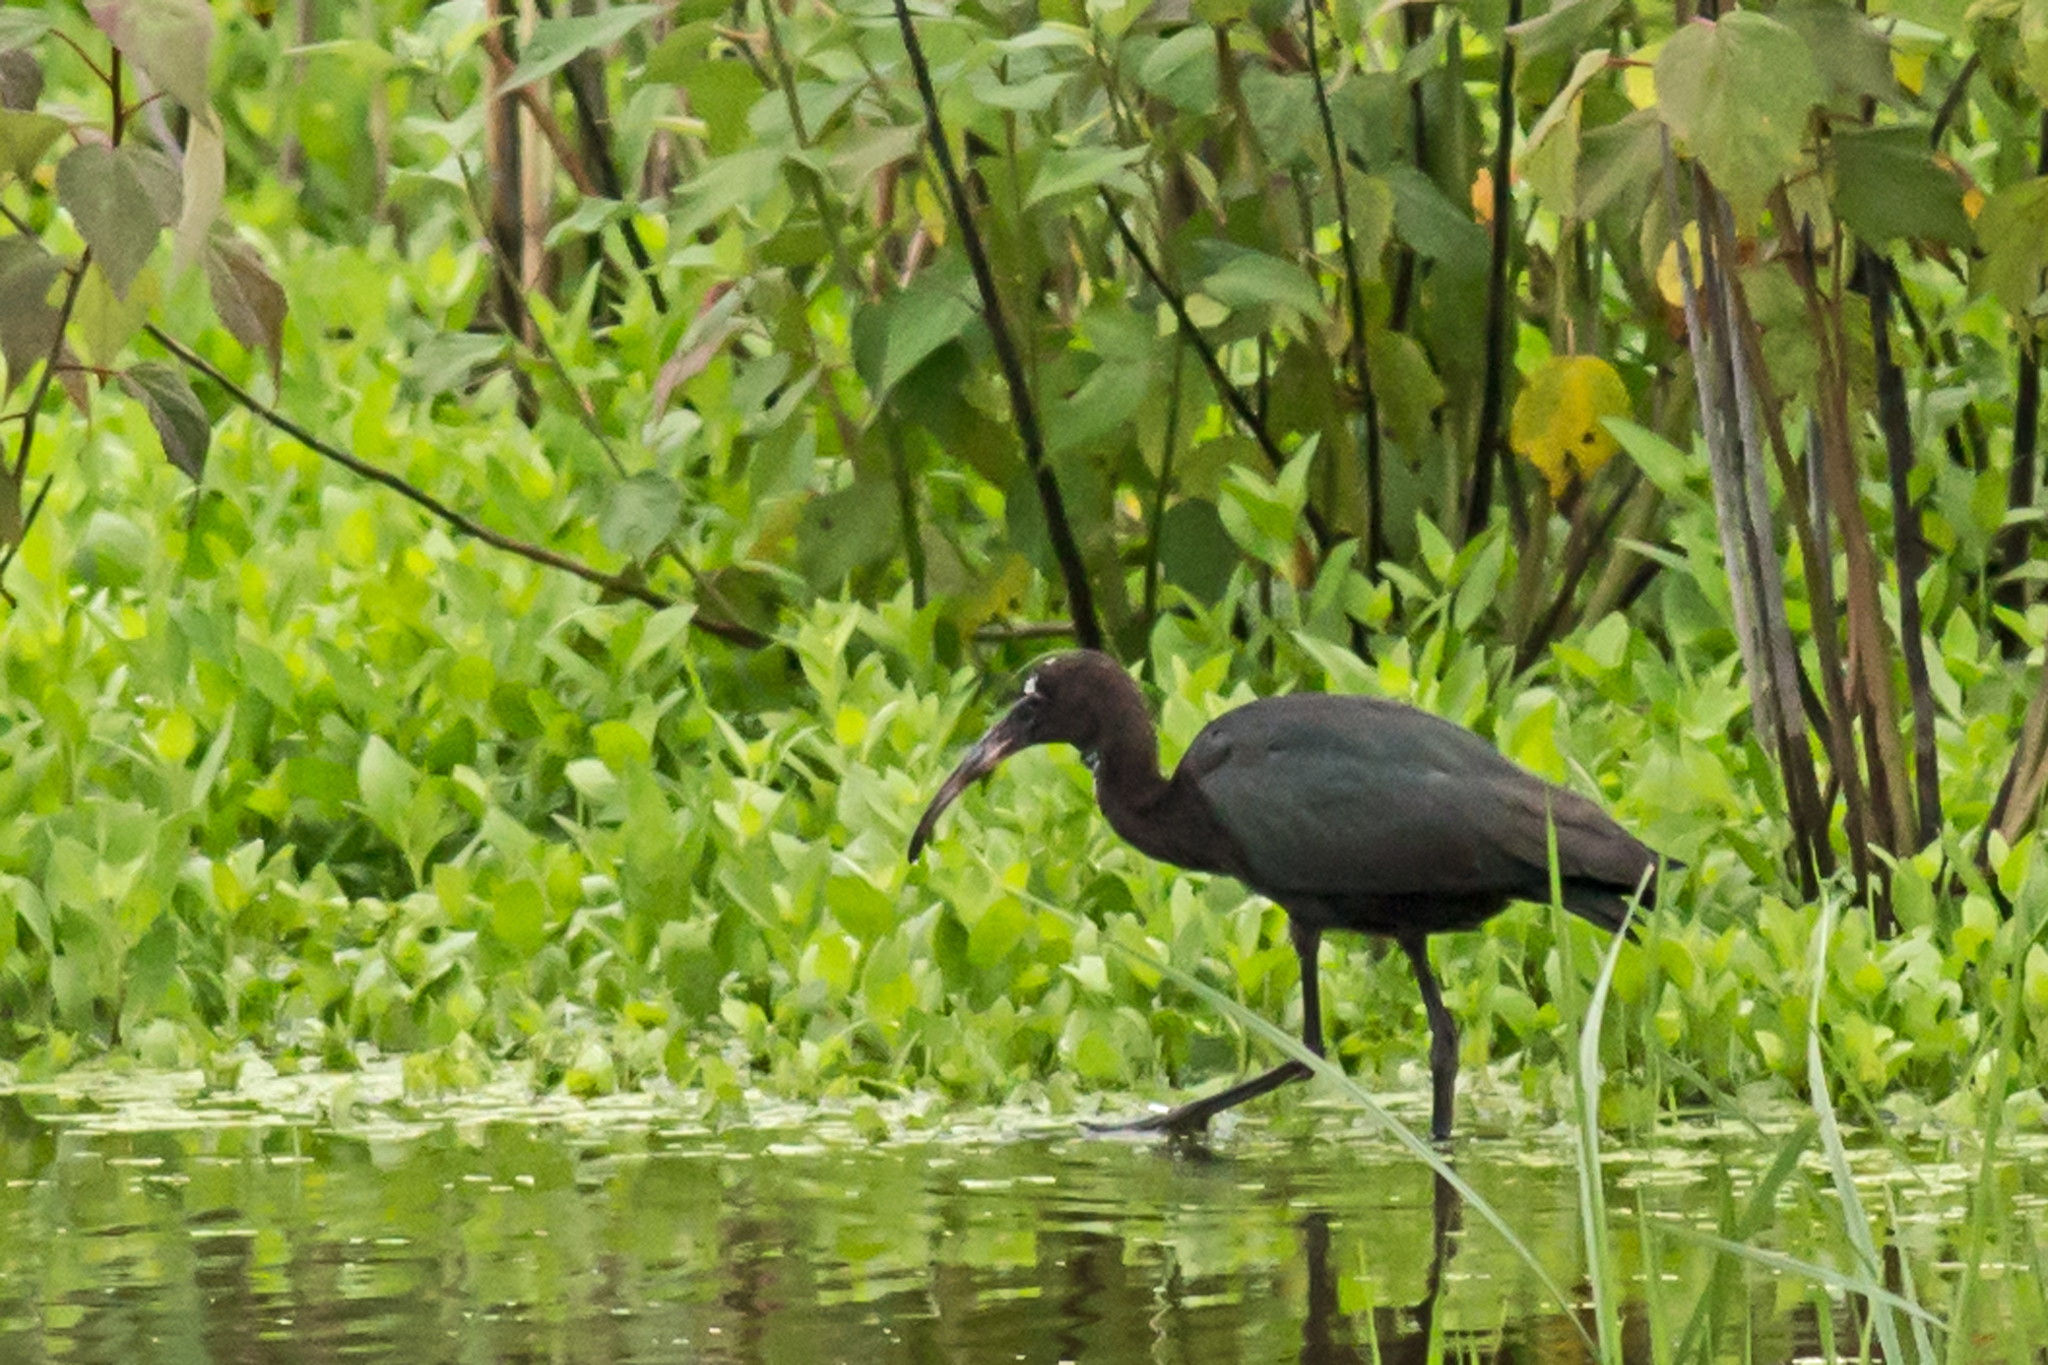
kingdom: Animalia
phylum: Chordata
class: Aves
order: Pelecaniformes
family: Threskiornithidae
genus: Plegadis
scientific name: Plegadis falcinellus
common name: Glossy ibis
